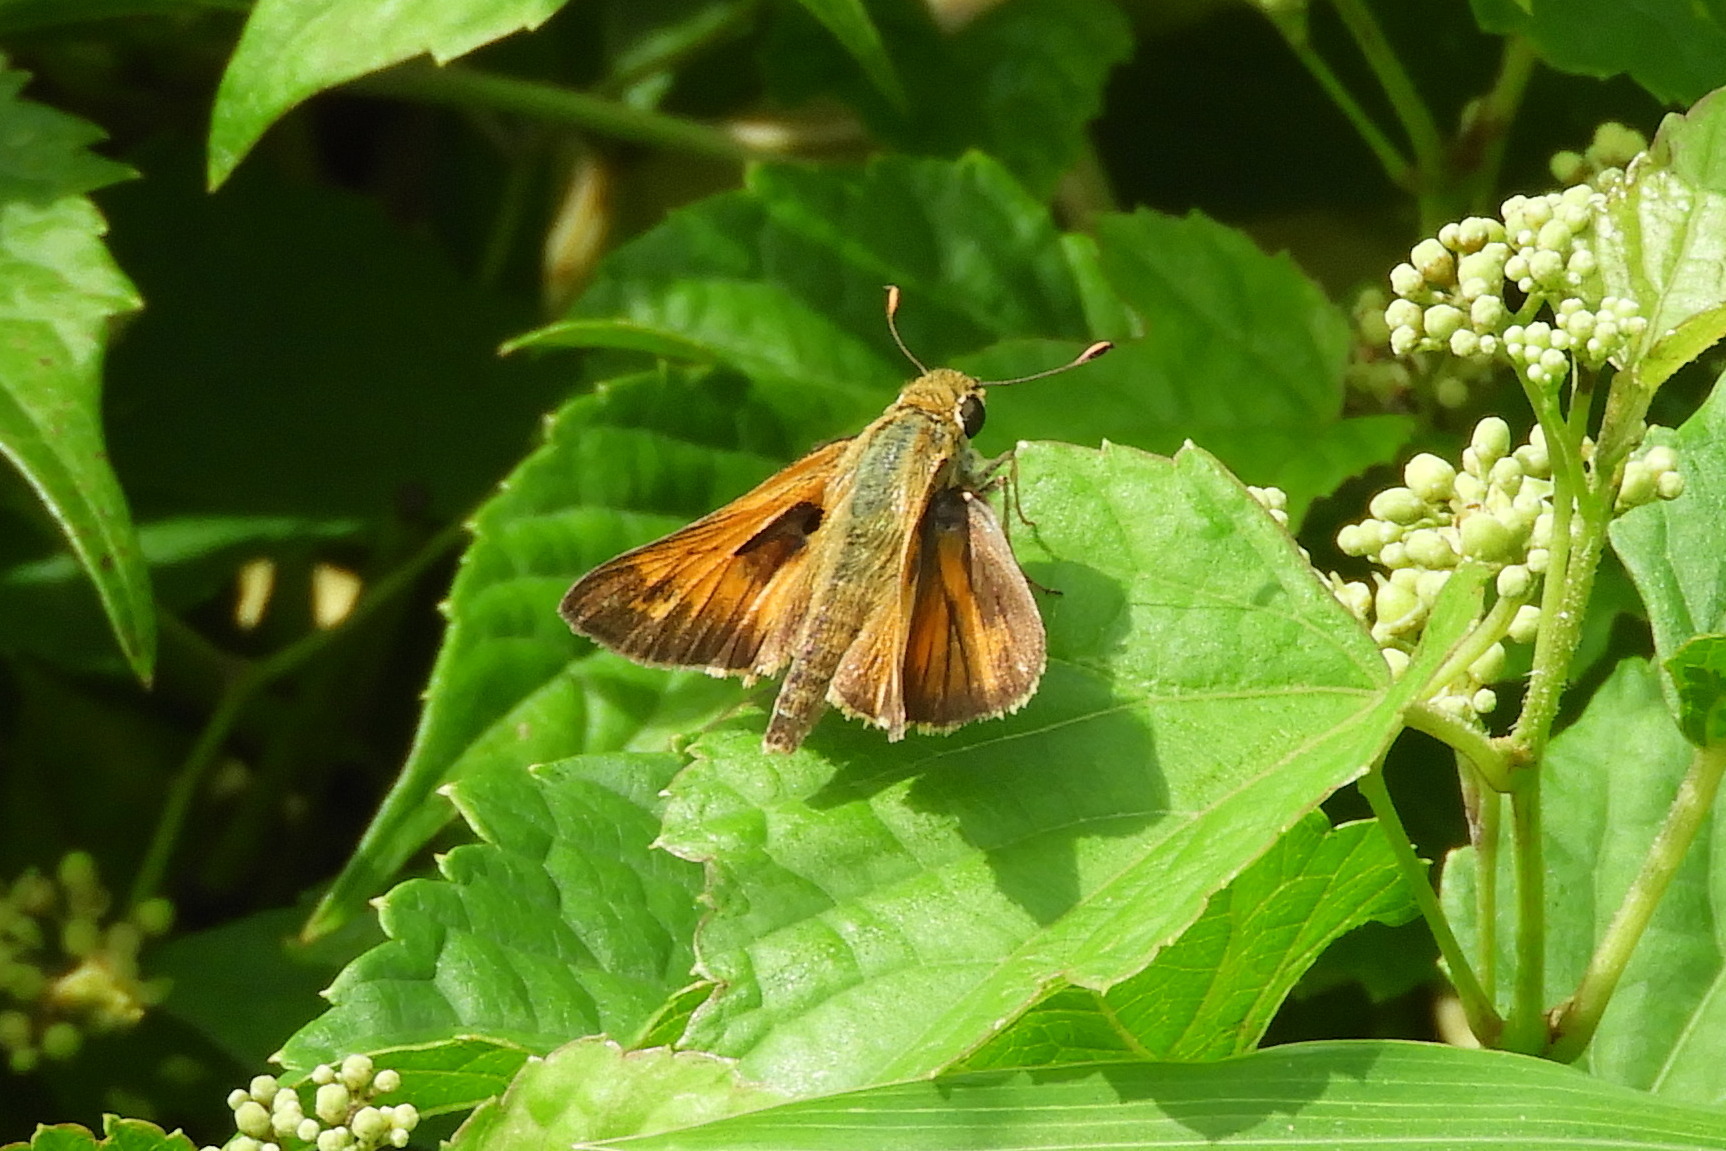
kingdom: Animalia
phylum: Arthropoda
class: Insecta
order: Lepidoptera
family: Hesperiidae
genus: Atalopedes
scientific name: Atalopedes
